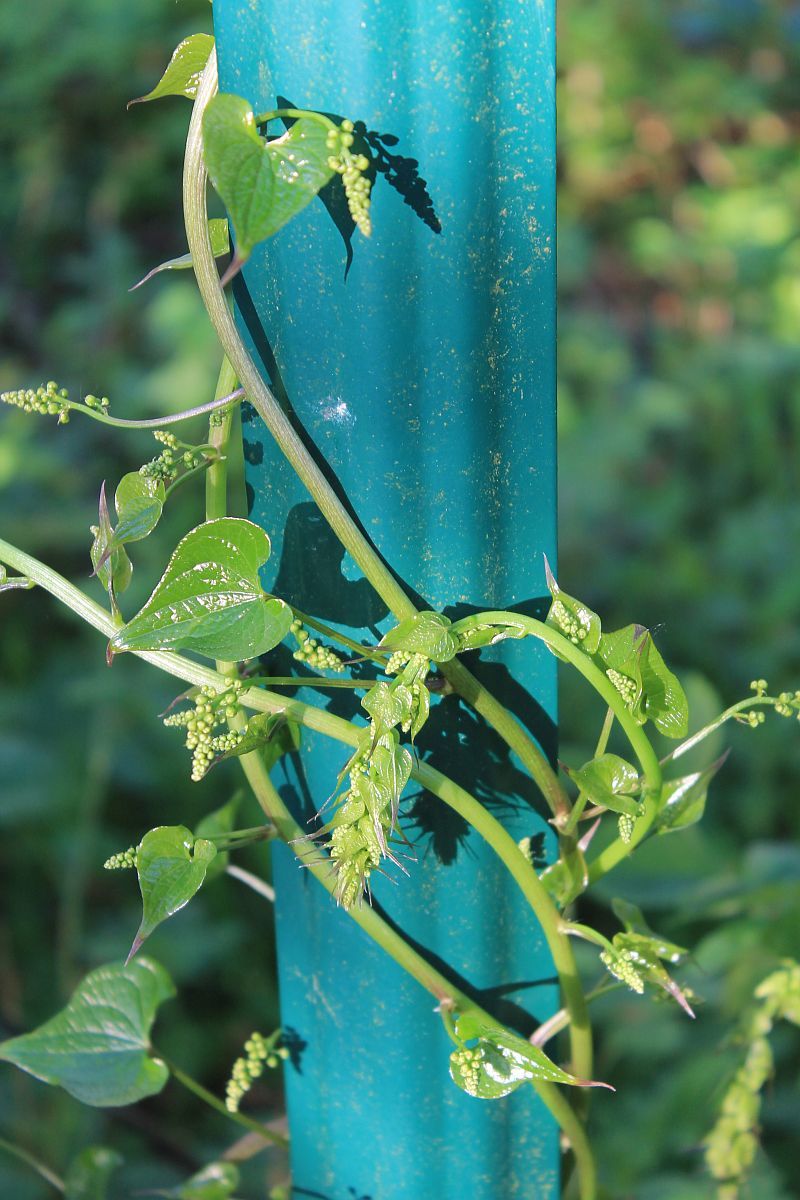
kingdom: Plantae
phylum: Tracheophyta
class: Liliopsida
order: Dioscoreales
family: Dioscoreaceae
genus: Dioscorea
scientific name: Dioscorea communis
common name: Black-bindweed
